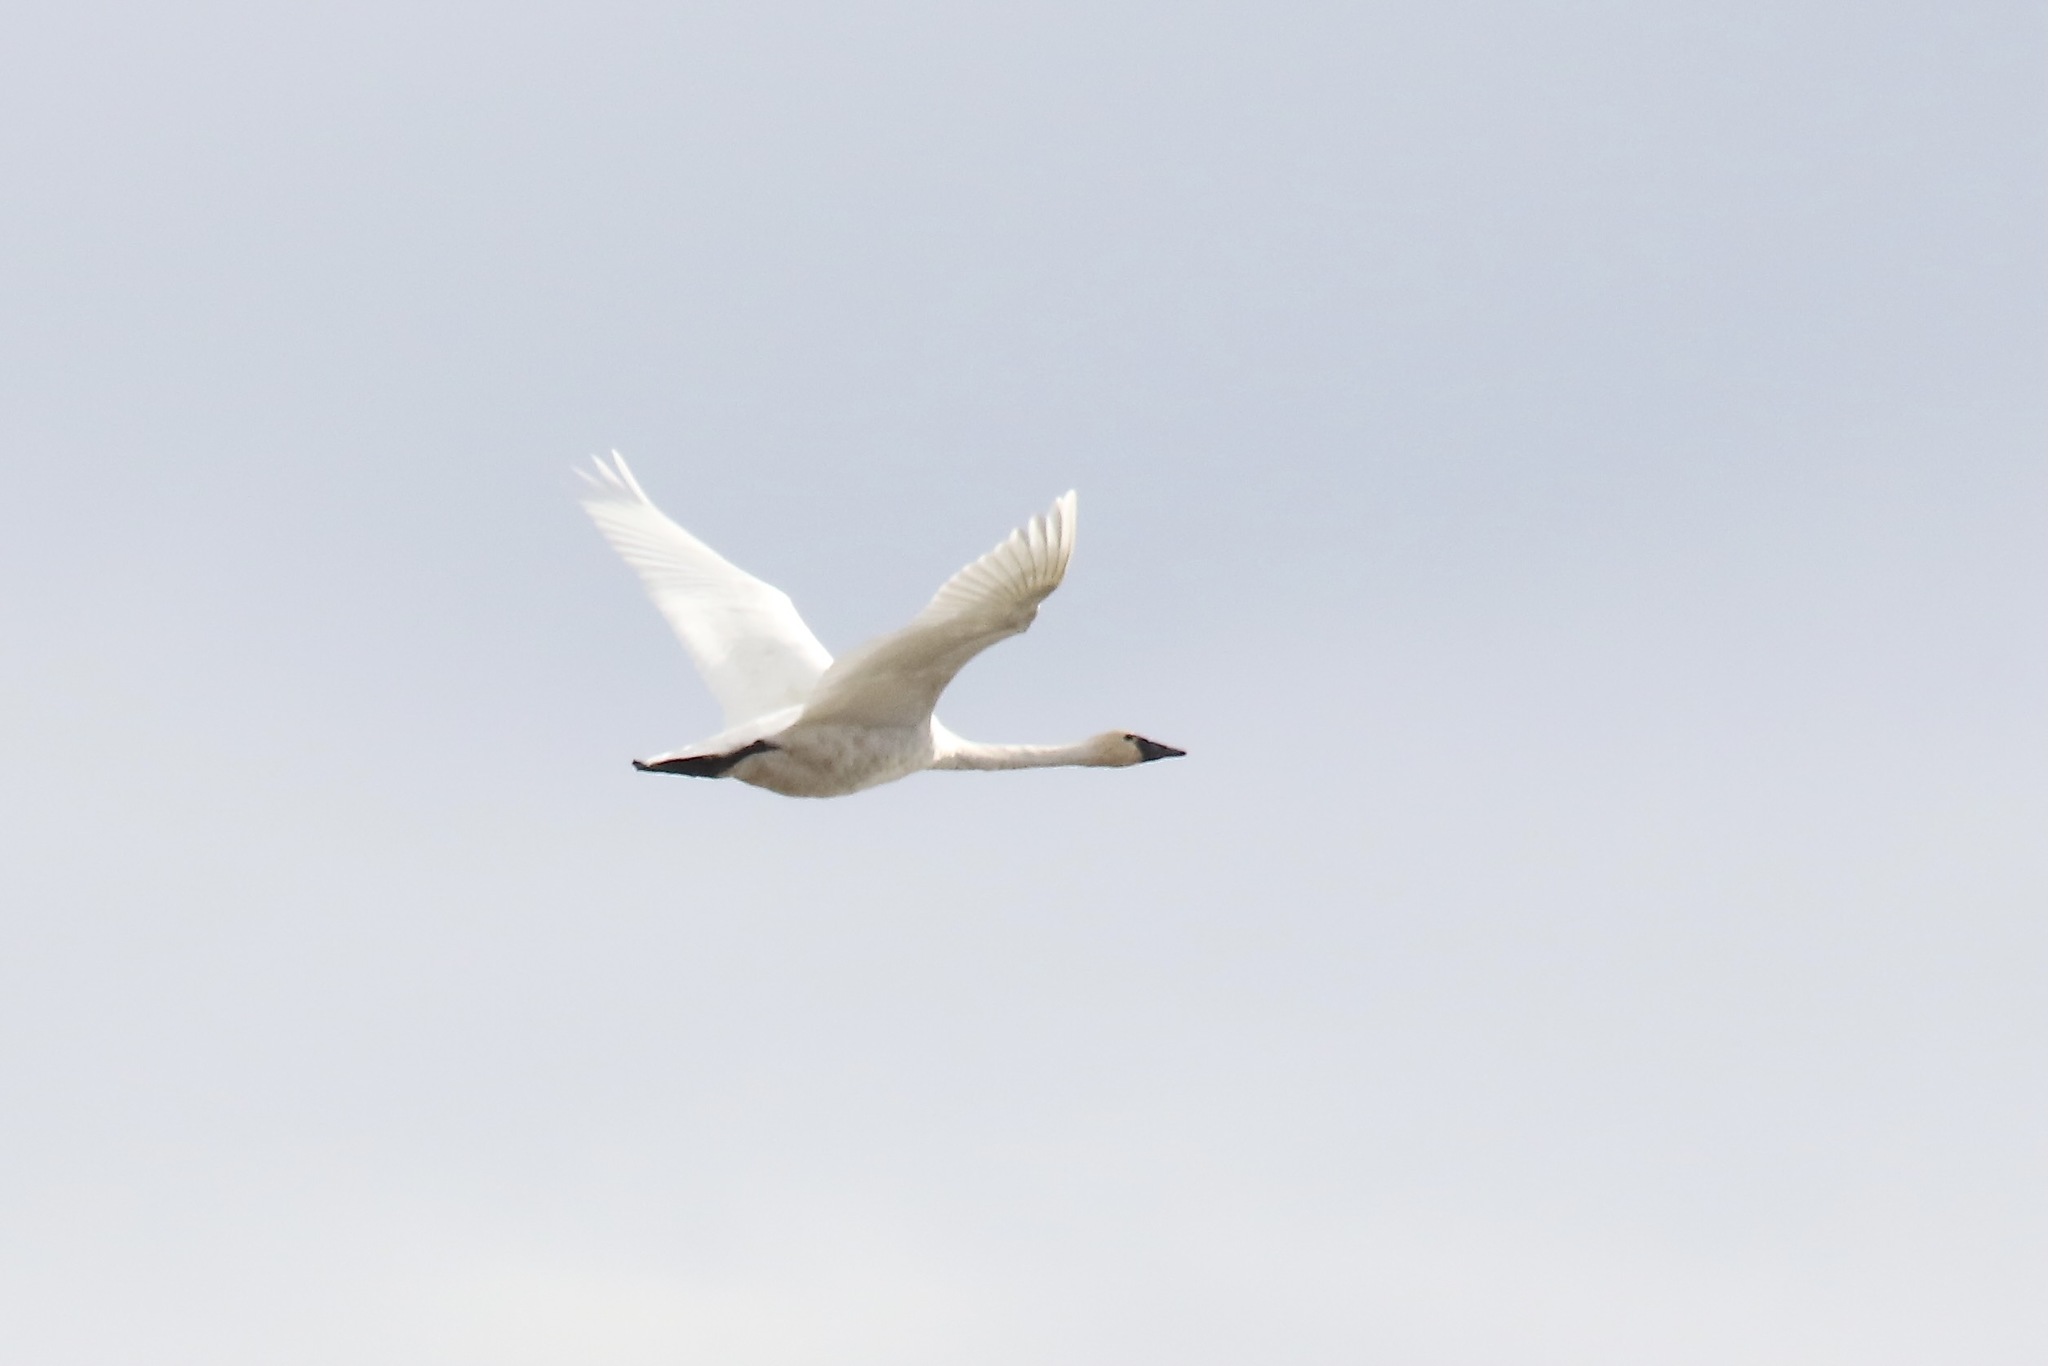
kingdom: Animalia
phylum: Chordata
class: Aves
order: Anseriformes
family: Anatidae
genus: Cygnus
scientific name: Cygnus columbianus
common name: Tundra swan
